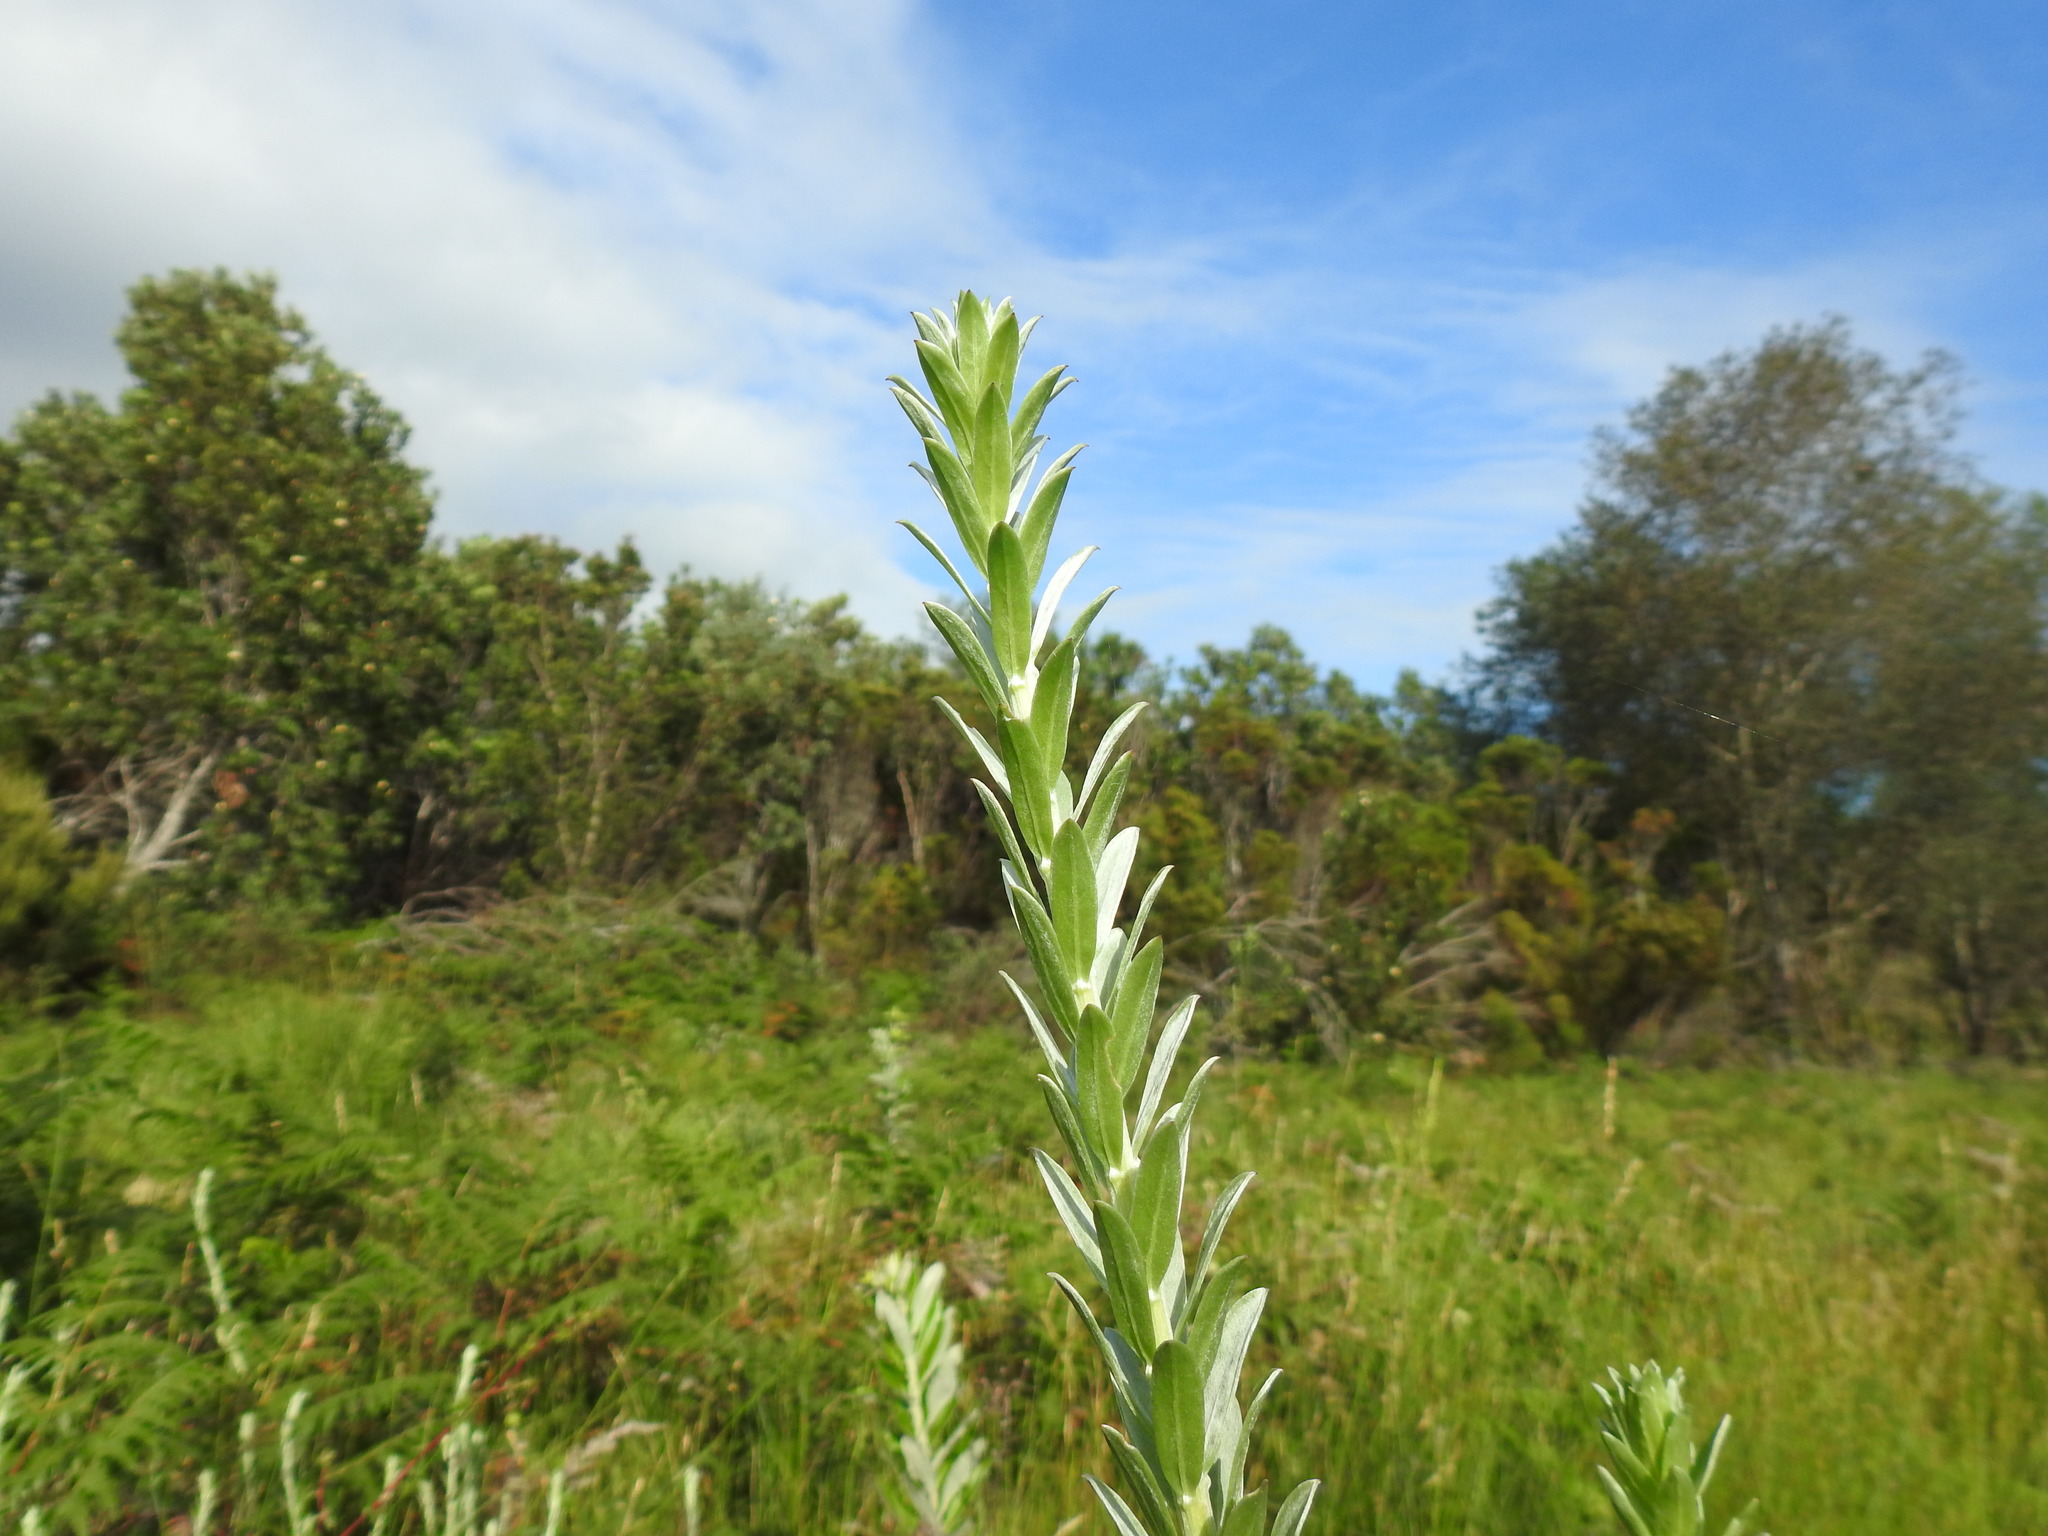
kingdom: Plantae
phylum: Tracheophyta
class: Magnoliopsida
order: Asterales
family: Asteraceae
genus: Schistostephium
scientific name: Schistostephium umbellatum
